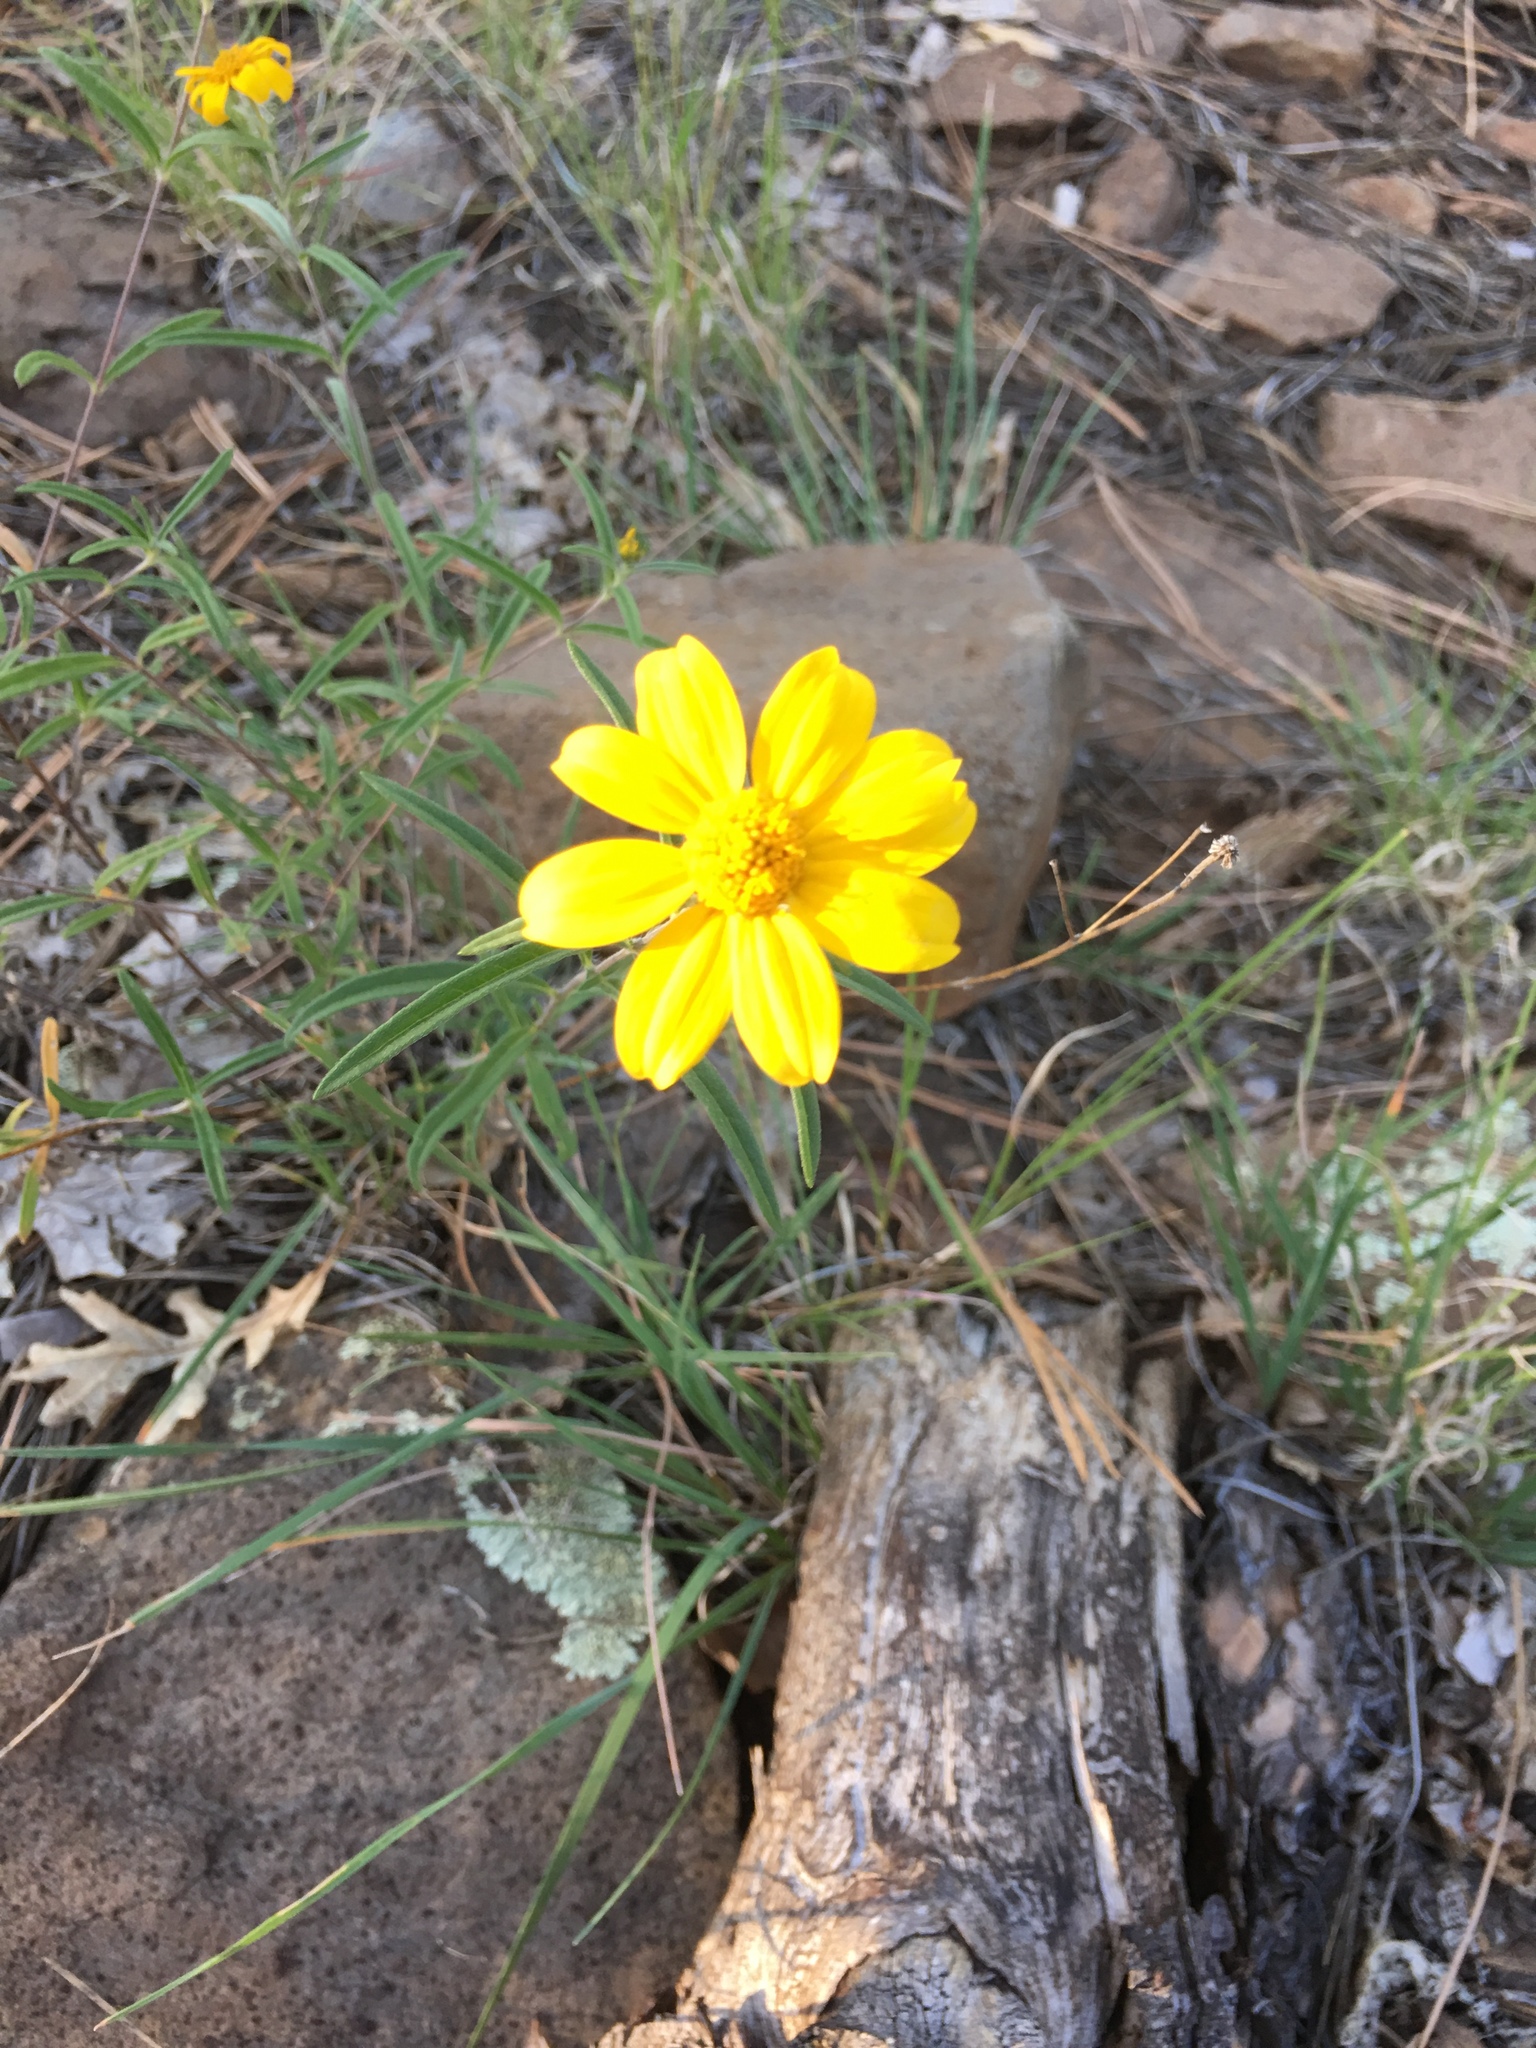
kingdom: Plantae
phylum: Tracheophyta
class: Magnoliopsida
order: Asterales
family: Asteraceae
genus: Heliomeris
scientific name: Heliomeris multiflora
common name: Showy goldeneye
